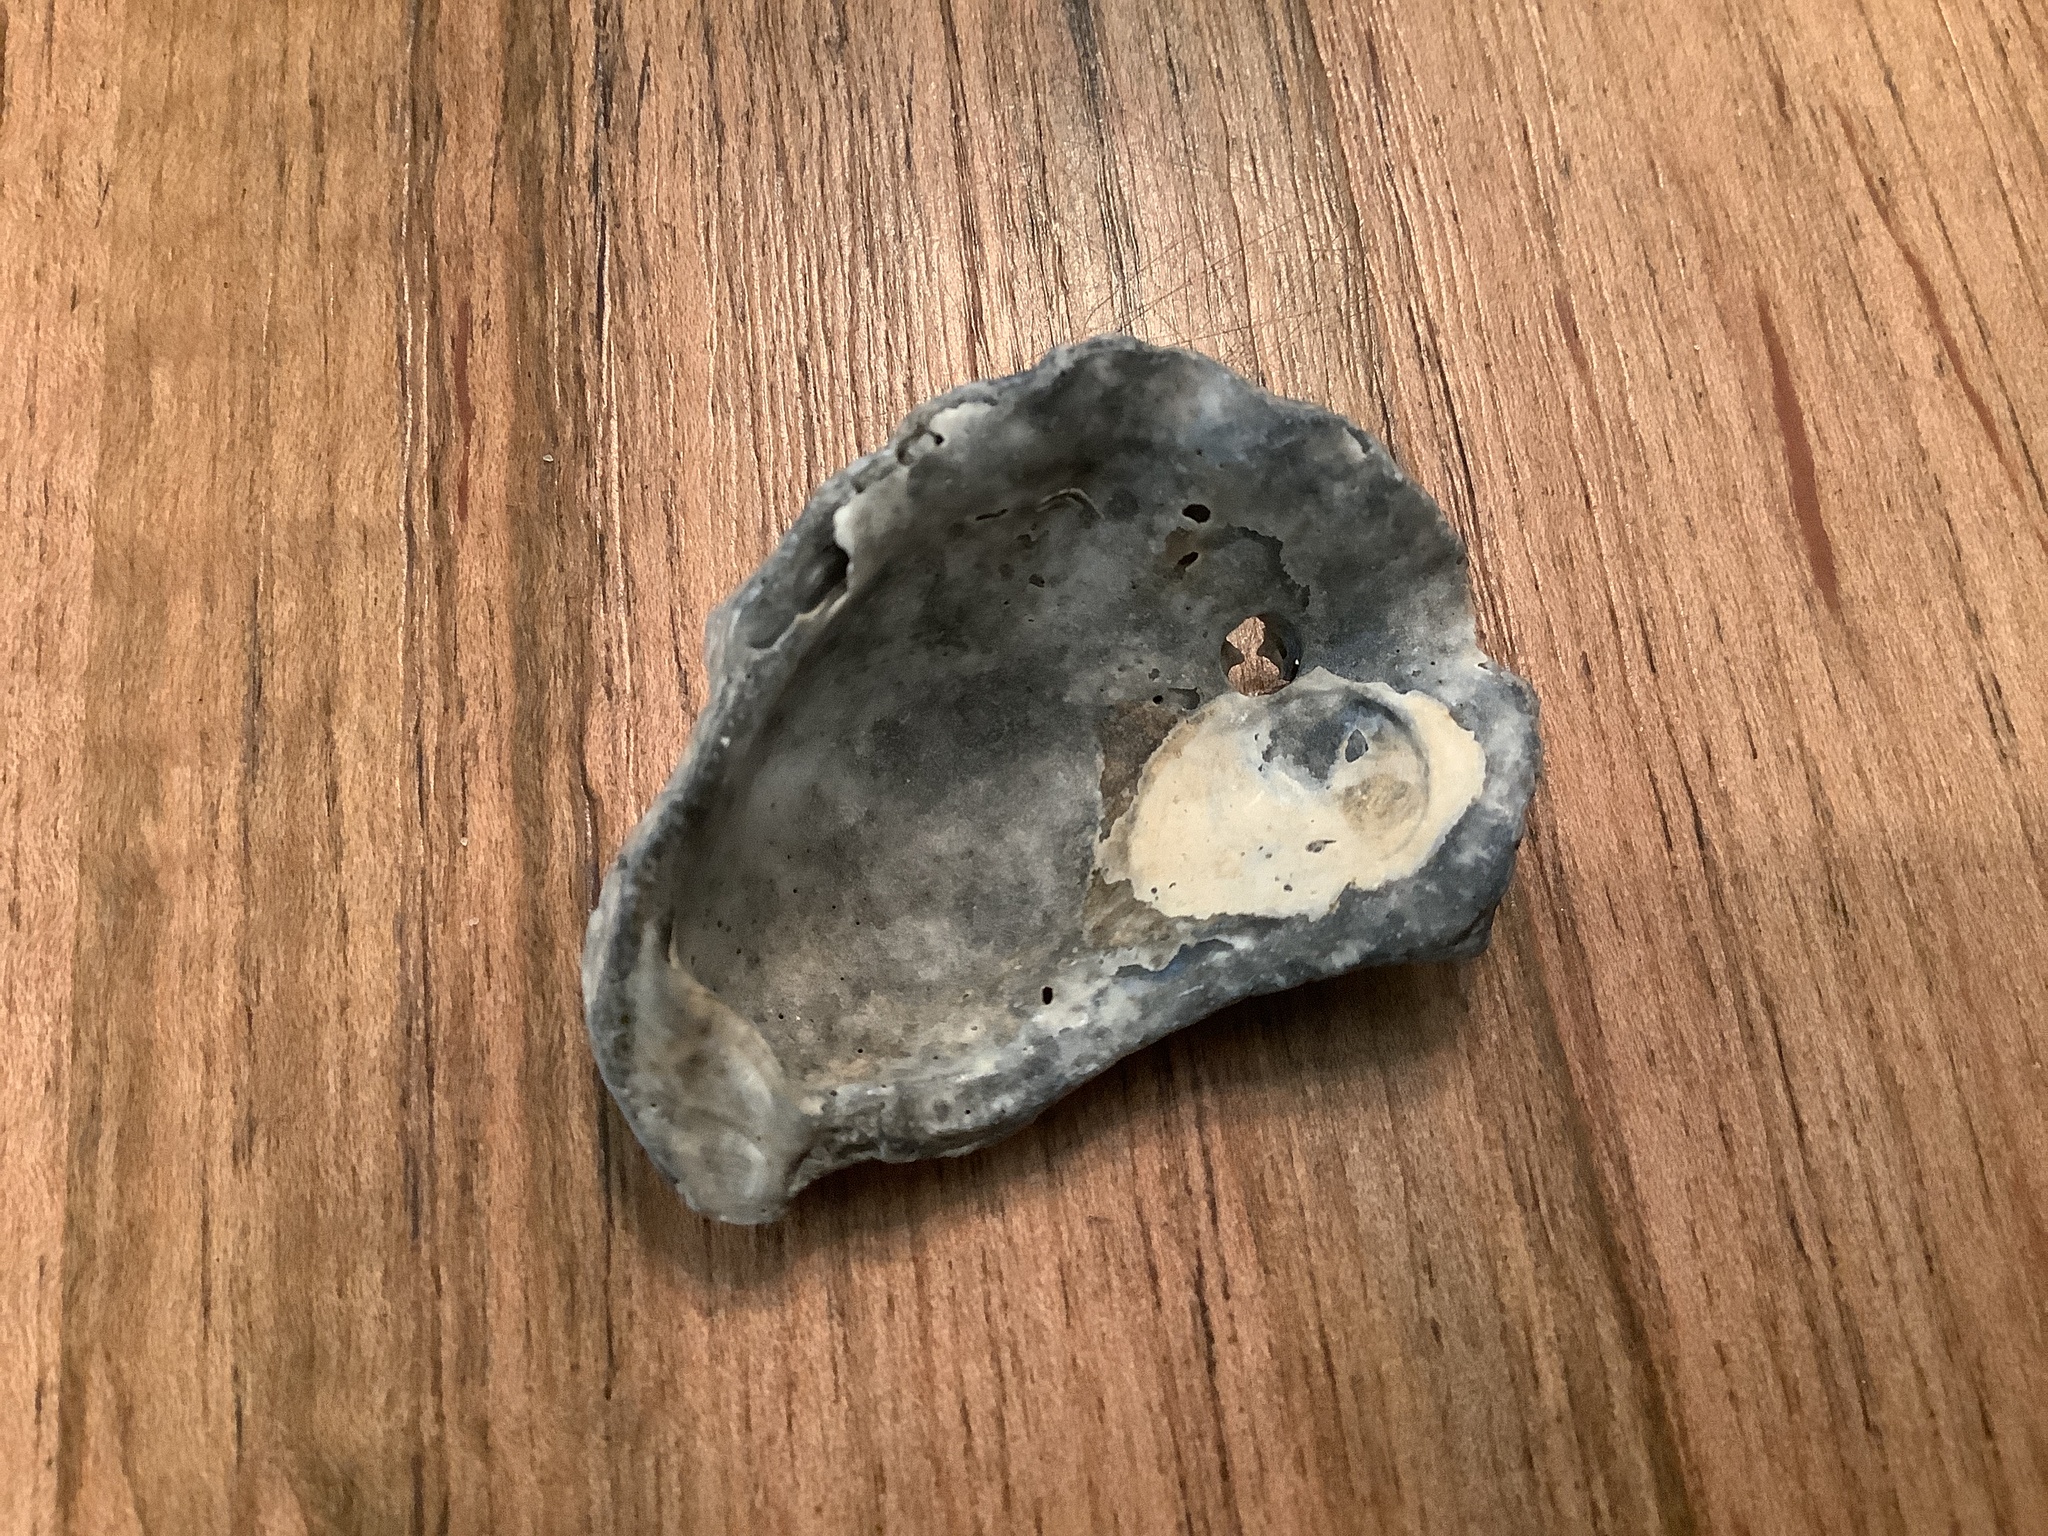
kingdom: Animalia
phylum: Mollusca
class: Bivalvia
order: Ostreida
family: Ostreidae
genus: Crassostrea
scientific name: Crassostrea virginica
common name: American oyster
